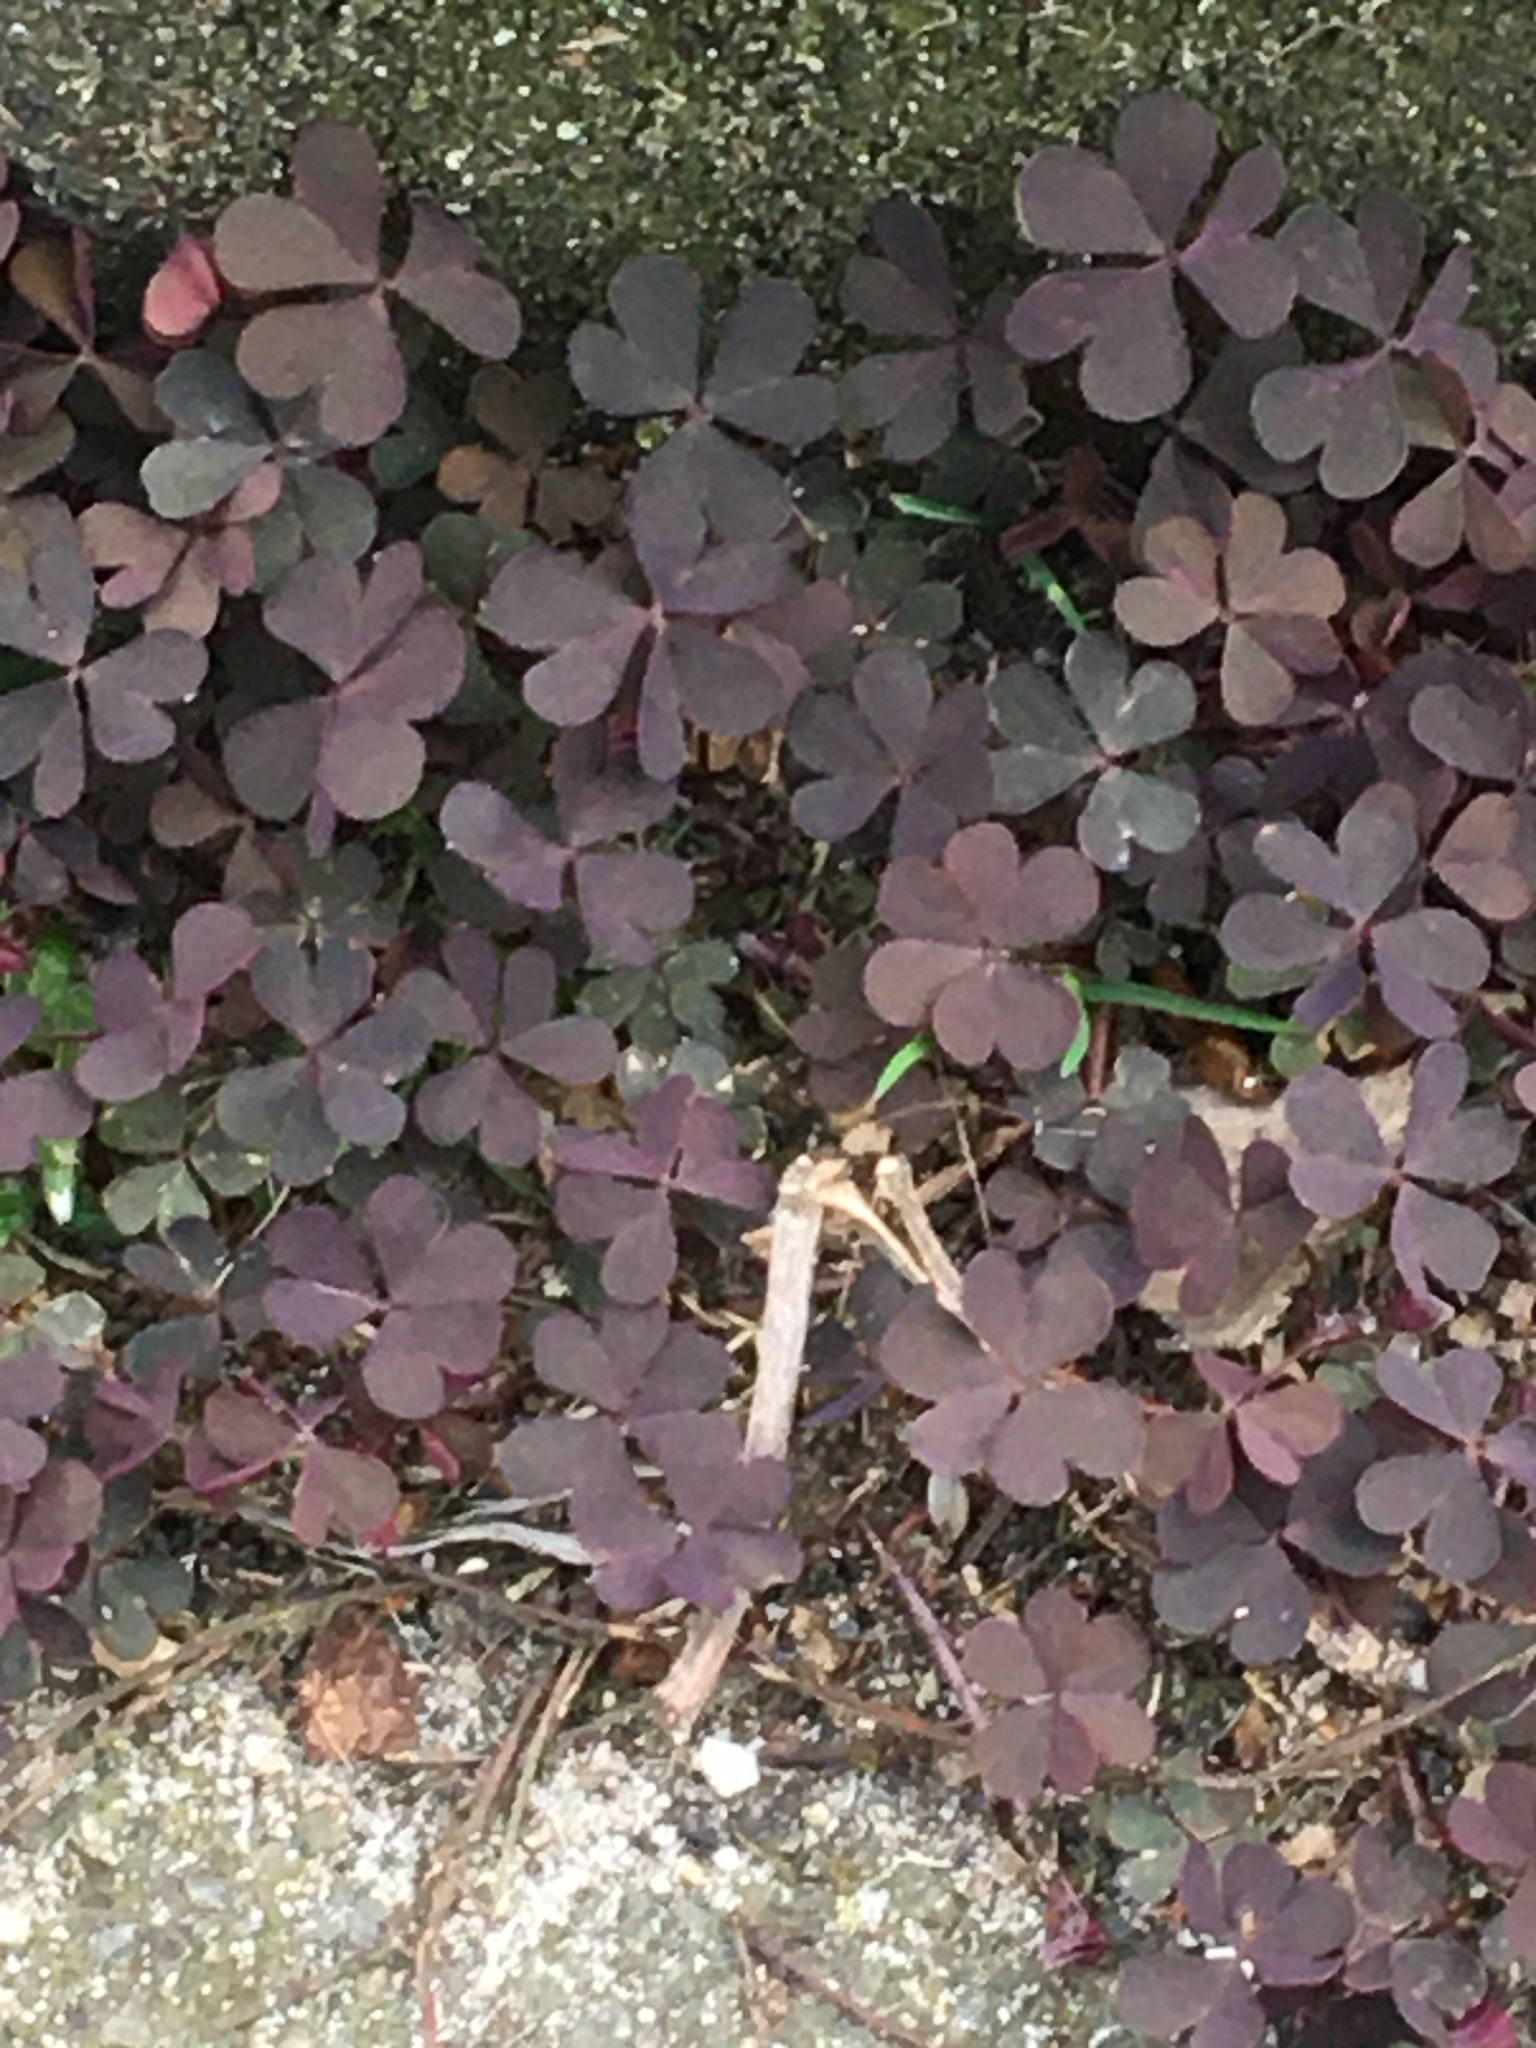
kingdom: Plantae
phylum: Tracheophyta
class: Magnoliopsida
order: Oxalidales
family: Oxalidaceae
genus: Oxalis
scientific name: Oxalis corniculata
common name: Procumbent yellow-sorrel
